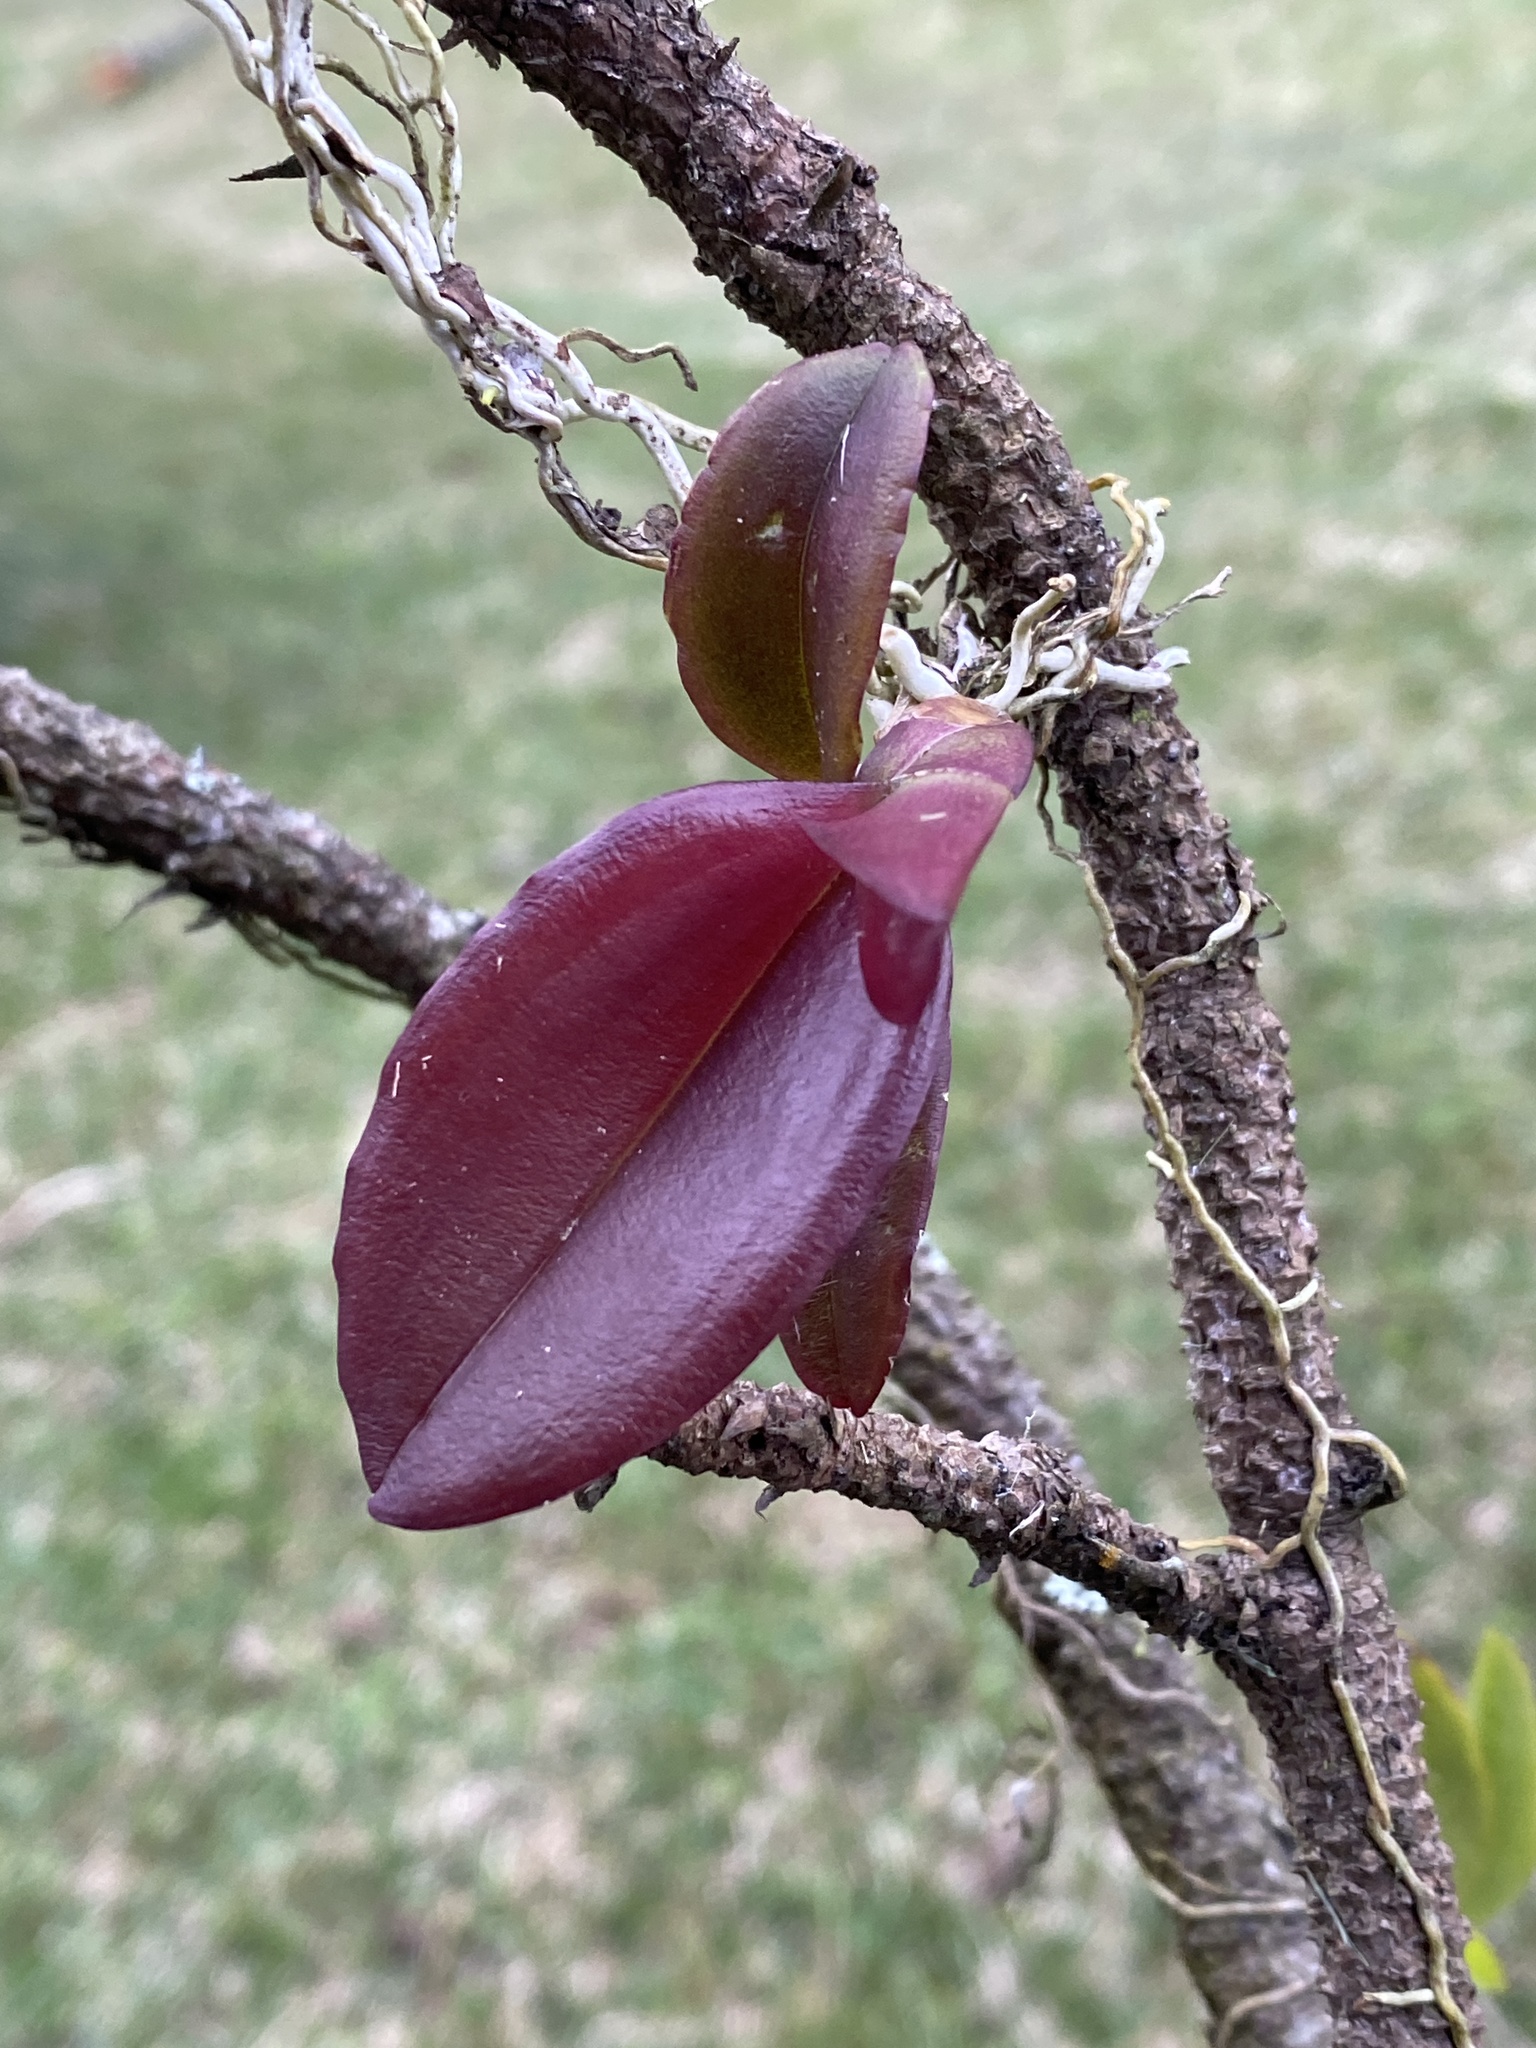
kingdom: Plantae
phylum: Tracheophyta
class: Liliopsida
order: Asparagales
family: Orchidaceae
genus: Comparettia
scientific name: Comparettia falcata
